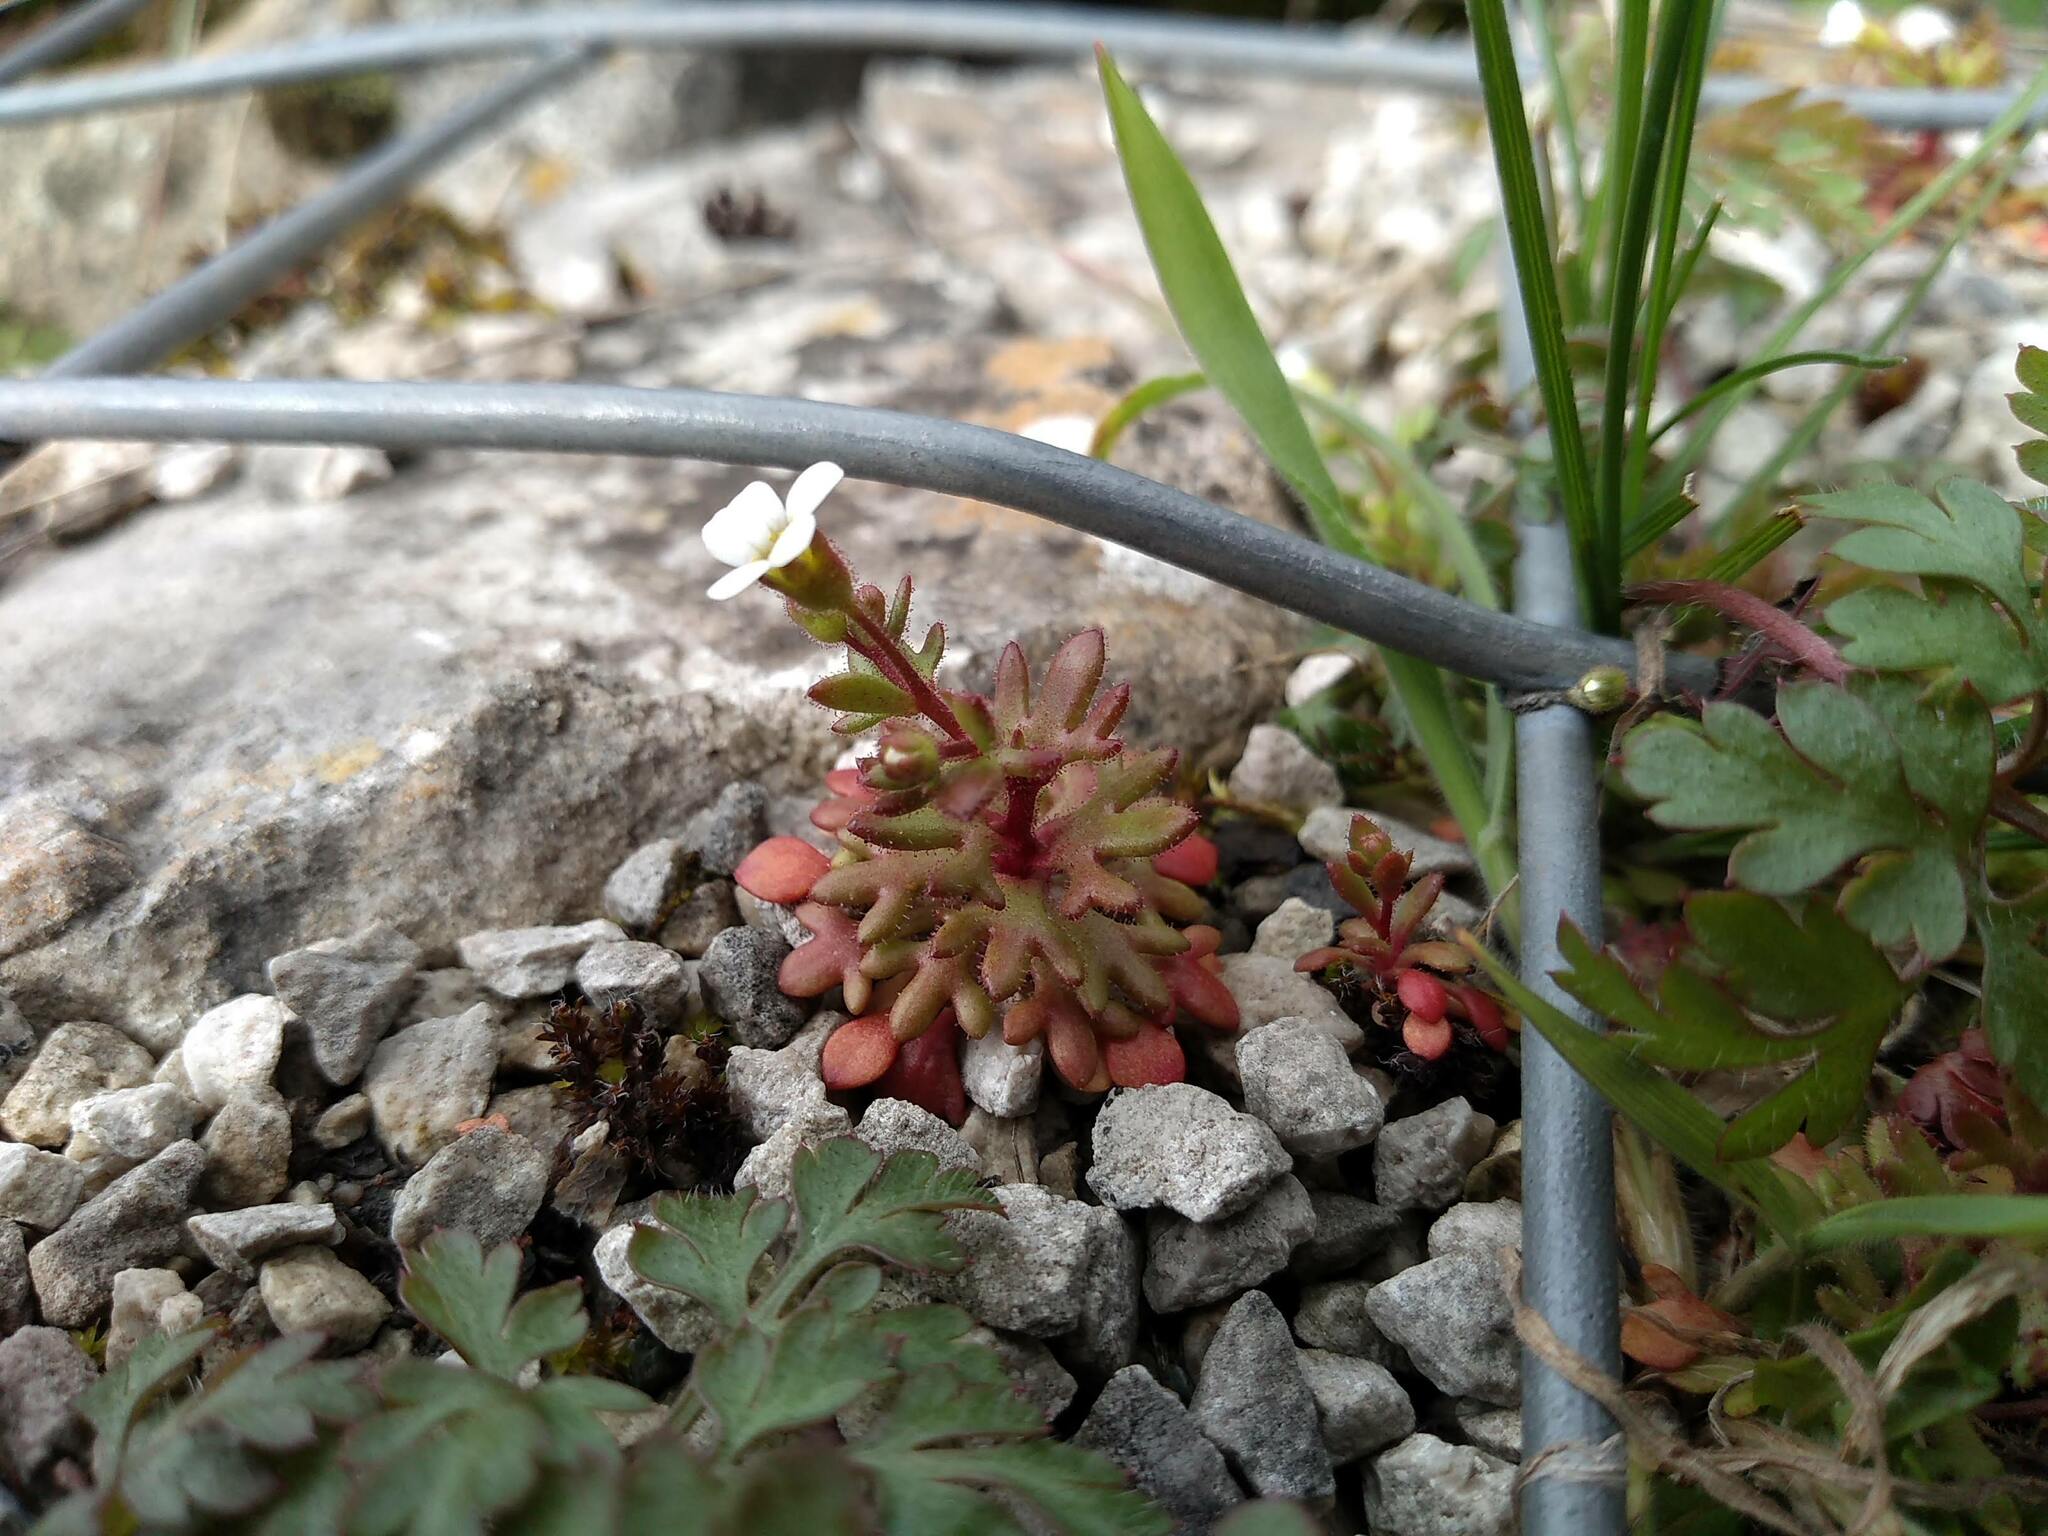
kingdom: Plantae
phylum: Tracheophyta
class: Magnoliopsida
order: Saxifragales
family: Saxifragaceae
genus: Saxifraga
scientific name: Saxifraga tridactylites
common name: Rue-leaved saxifrage
